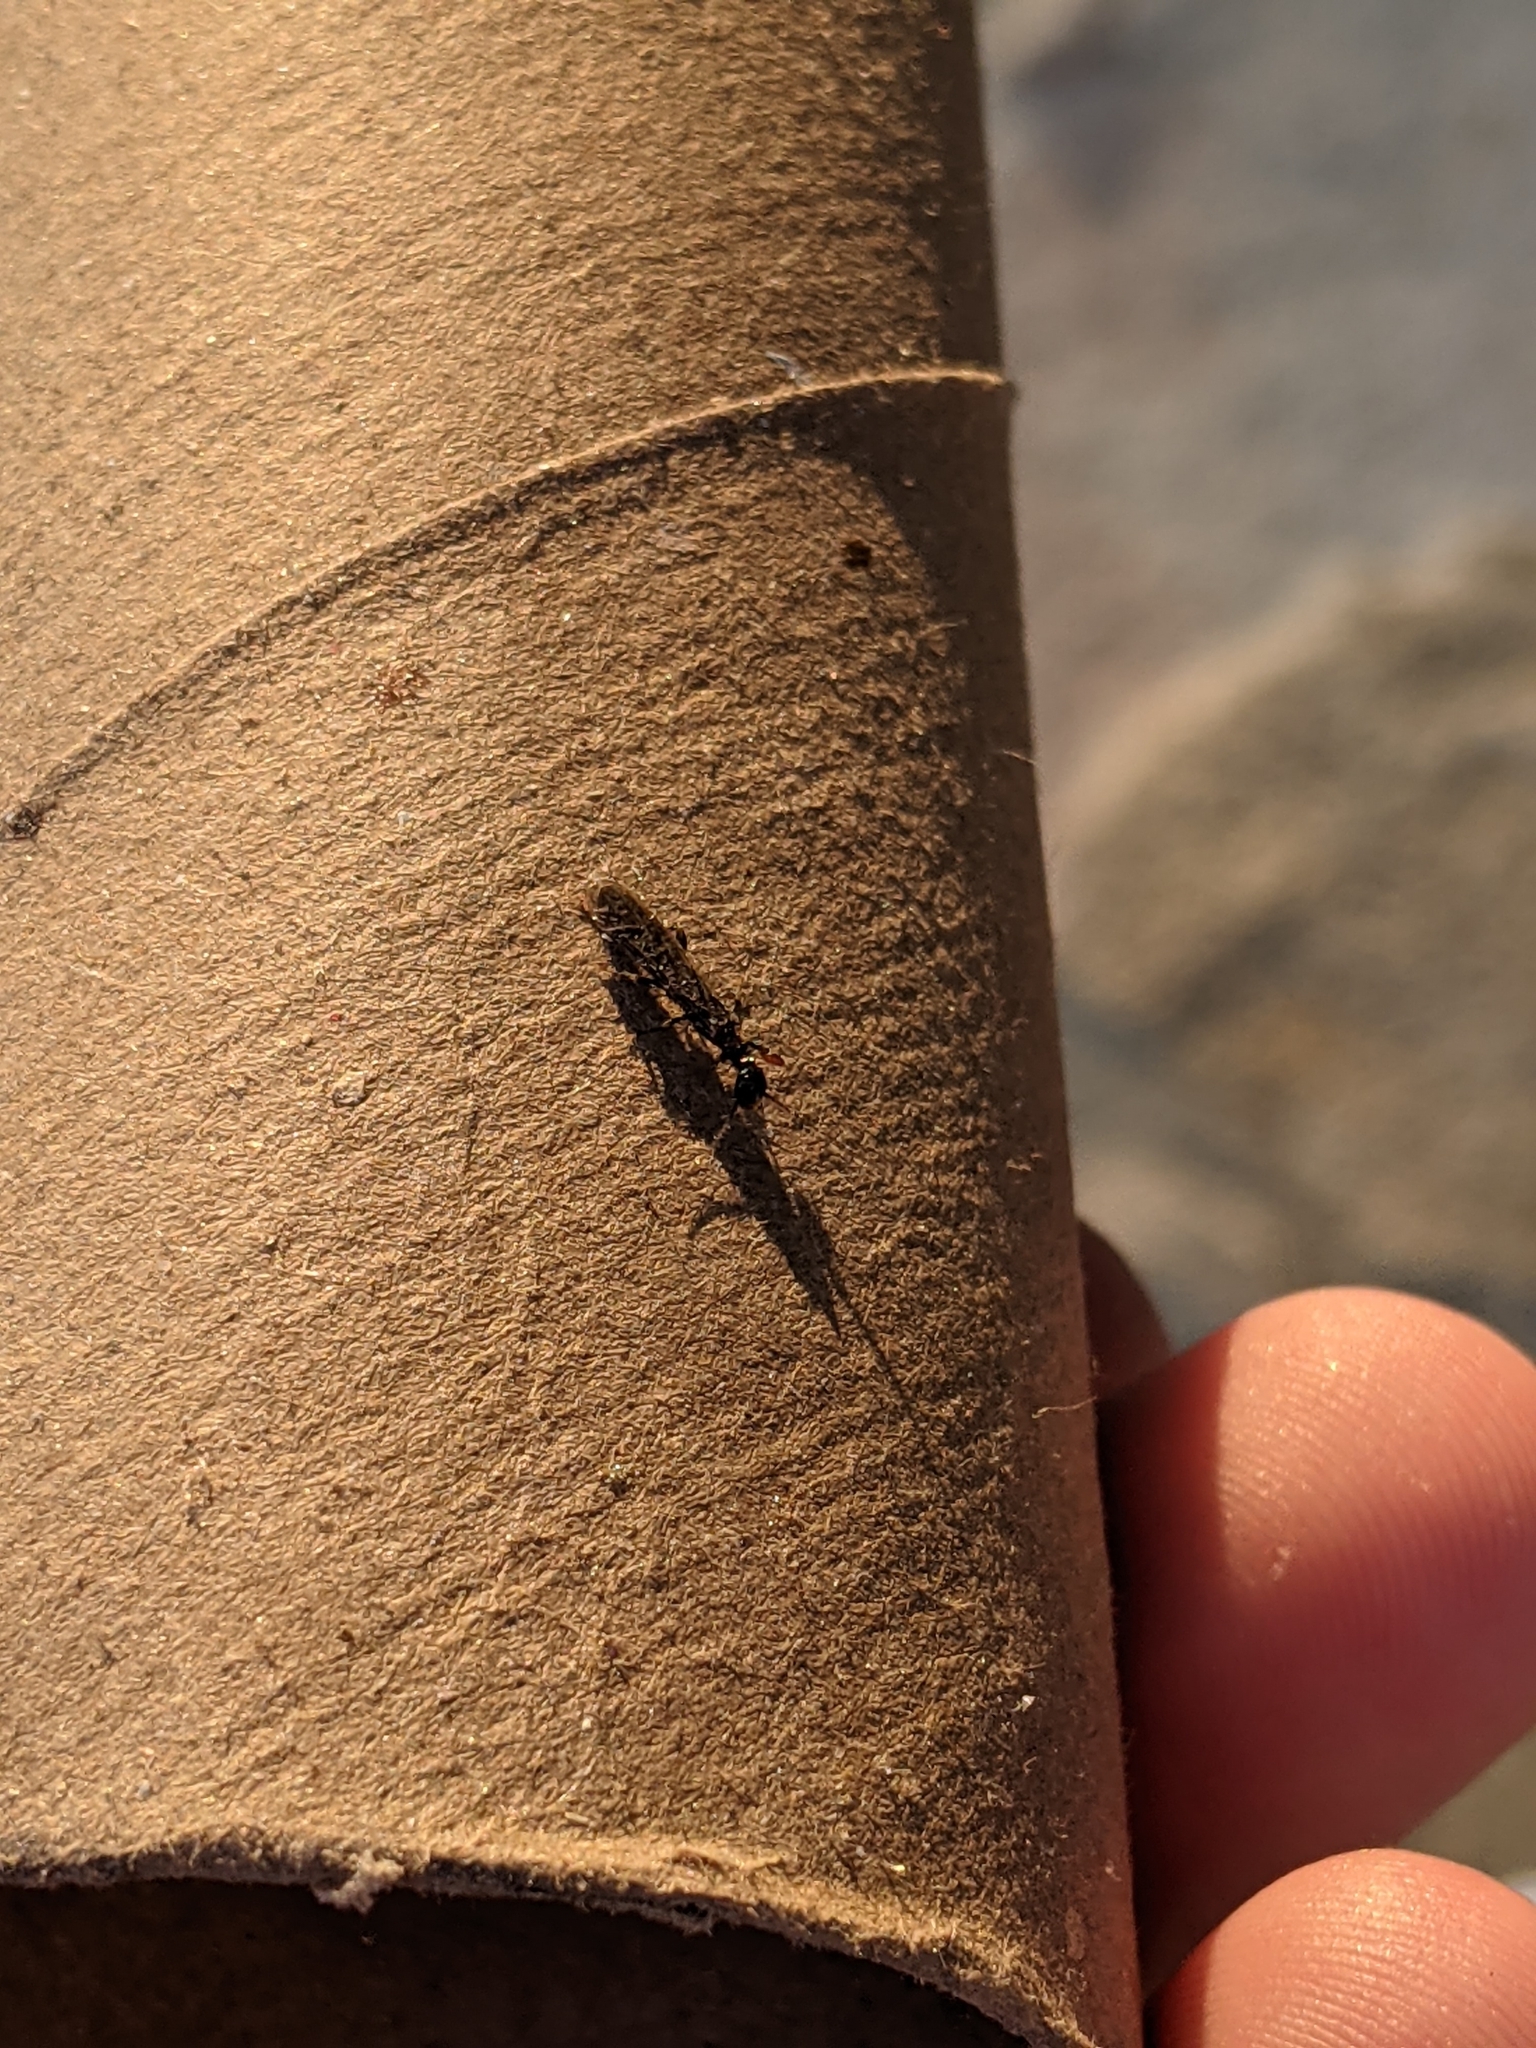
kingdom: Animalia
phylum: Arthropoda
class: Insecta
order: Embioptera
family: Oligotomidae
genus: Oligotoma
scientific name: Oligotoma nigra
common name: Black webspinner
